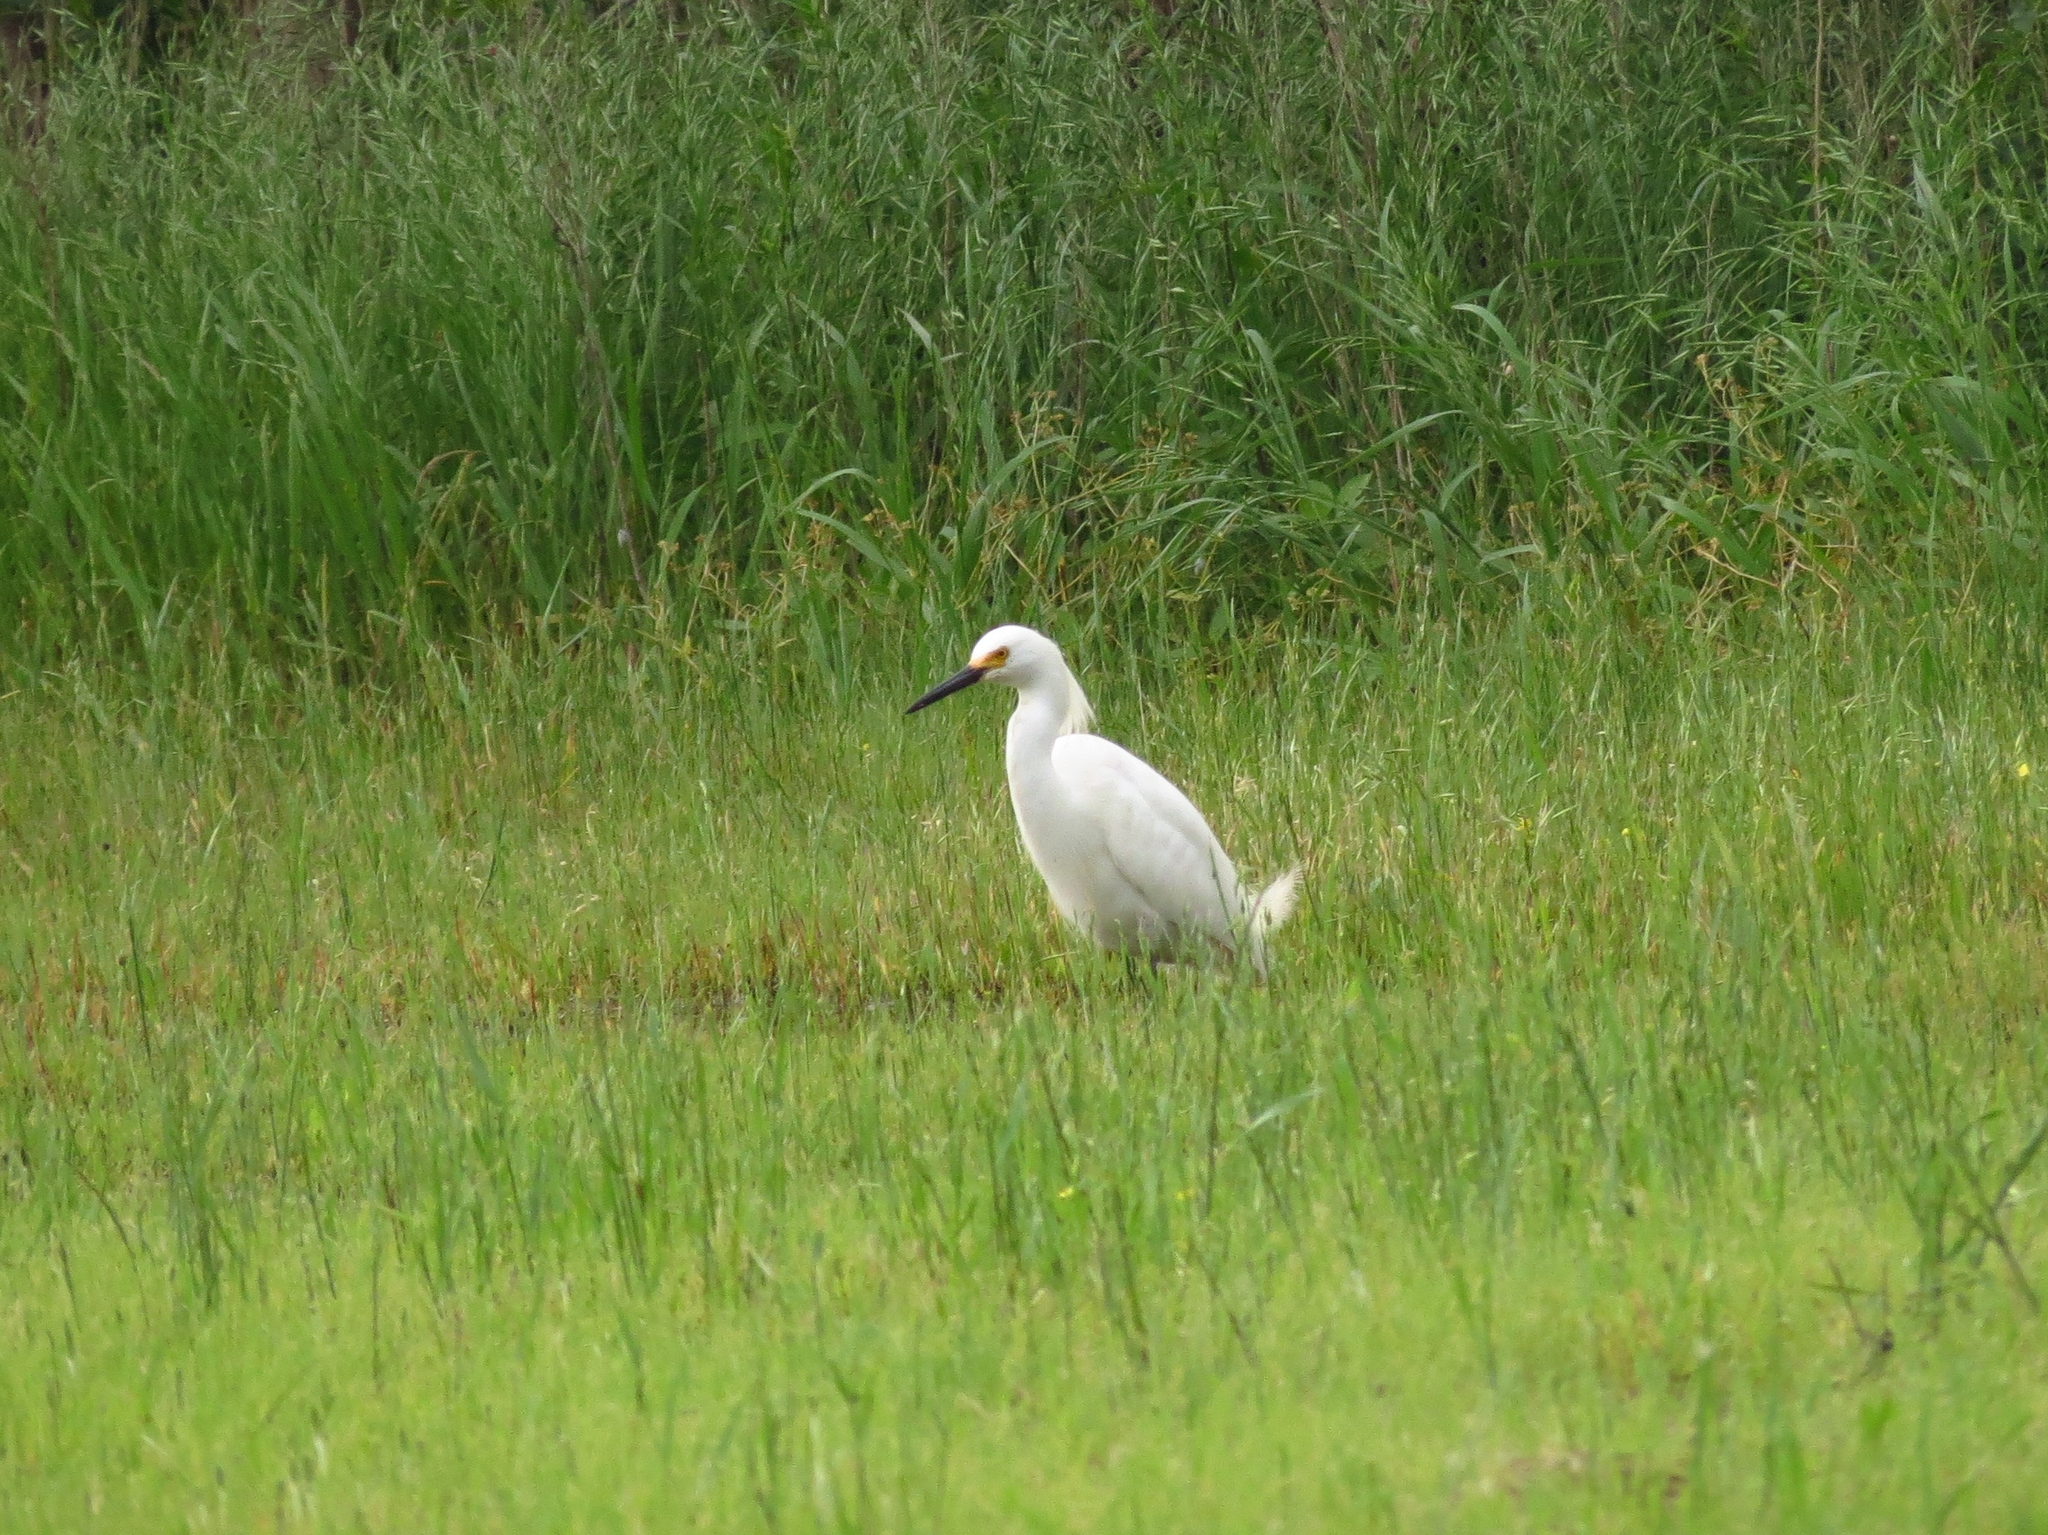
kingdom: Animalia
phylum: Chordata
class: Aves
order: Pelecaniformes
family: Ardeidae
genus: Egretta
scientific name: Egretta thula
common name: Snowy egret
